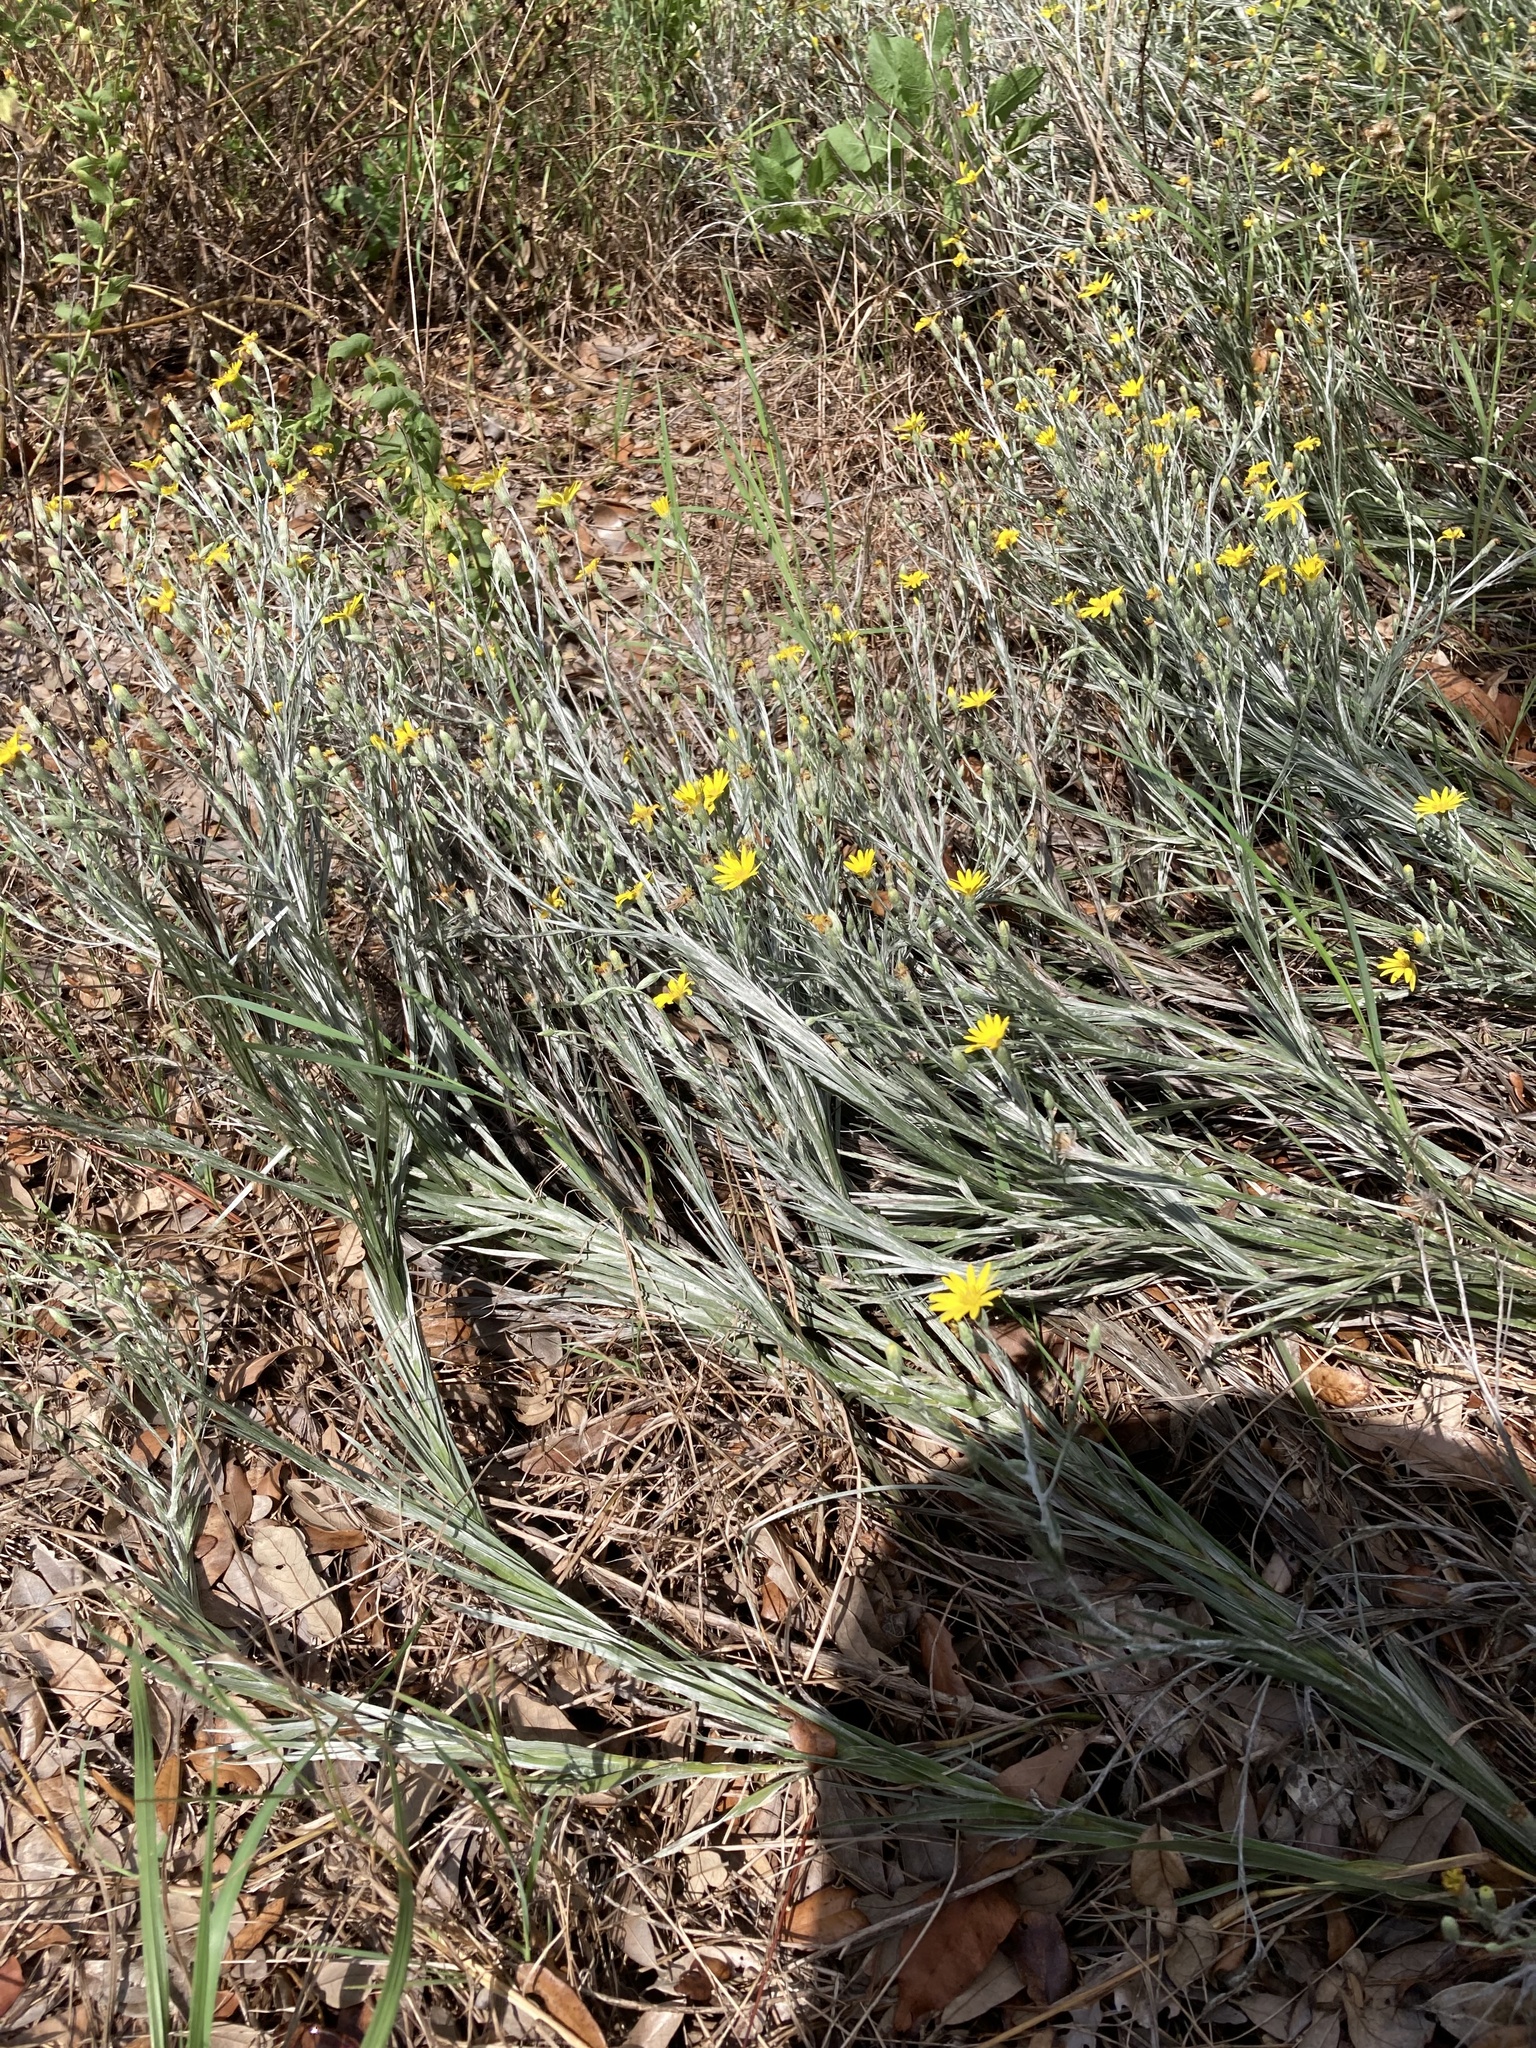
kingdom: Plantae
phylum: Tracheophyta
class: Magnoliopsida
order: Asterales
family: Asteraceae
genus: Pityopsis
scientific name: Pityopsis graminifolia
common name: Grass-leaf golden-aster
